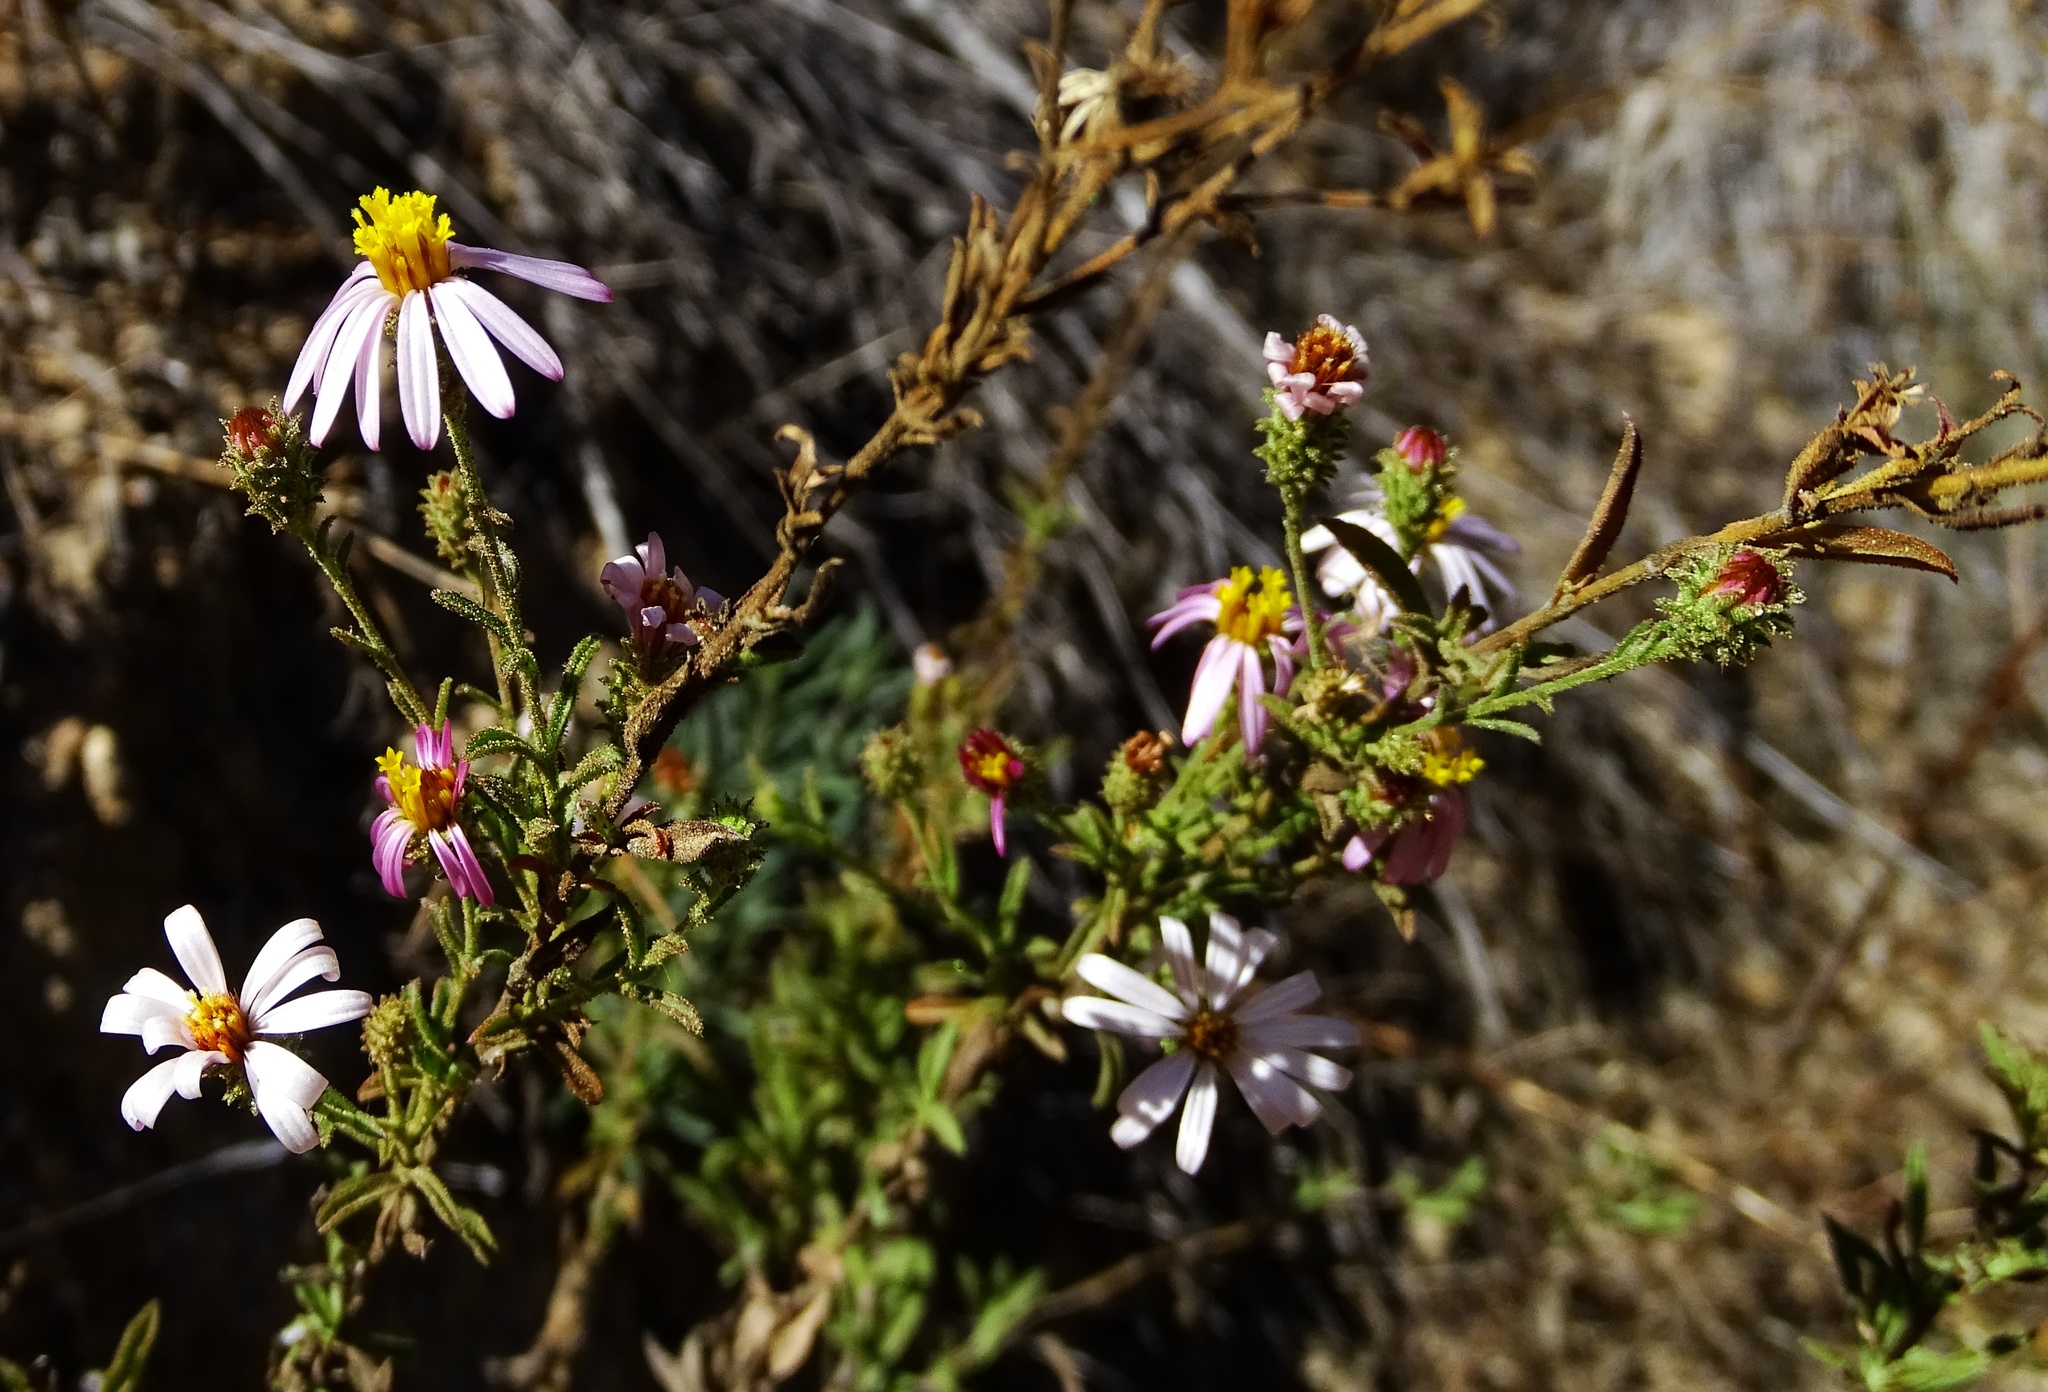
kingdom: Plantae
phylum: Tracheophyta
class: Magnoliopsida
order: Asterales
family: Asteraceae
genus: Corethrogyne
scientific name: Corethrogyne filaginifolia
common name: Sand-aster
